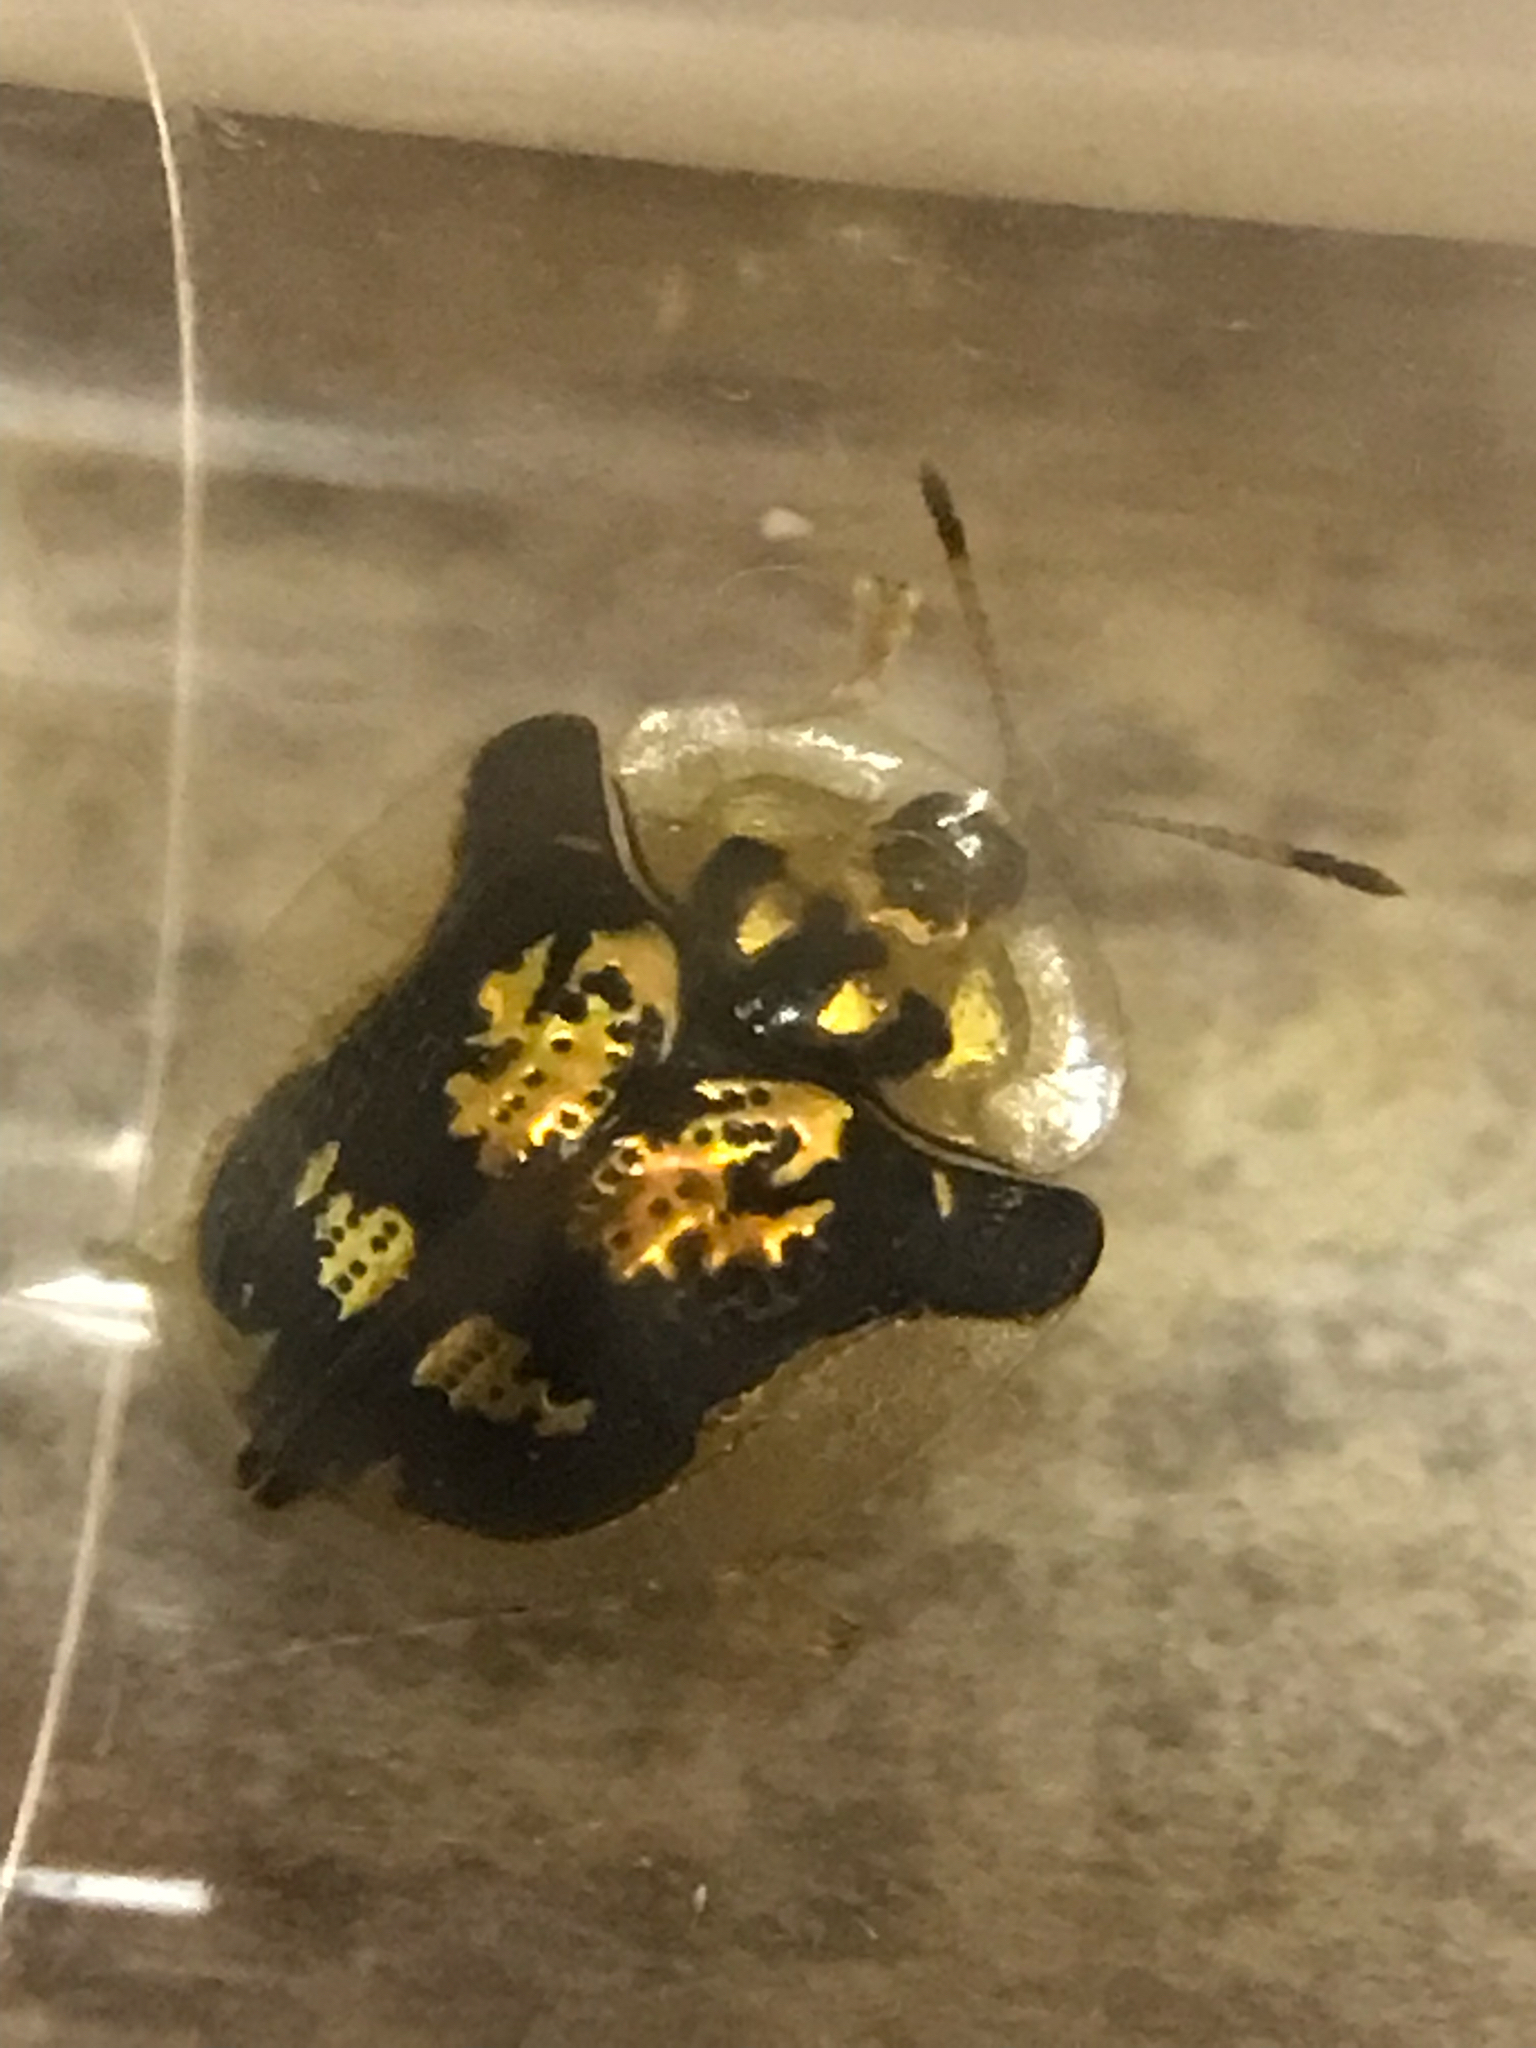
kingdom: Animalia
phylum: Arthropoda
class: Insecta
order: Coleoptera
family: Chrysomelidae
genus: Deloyala
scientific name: Deloyala guttata
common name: Mottled tortoise beetle
